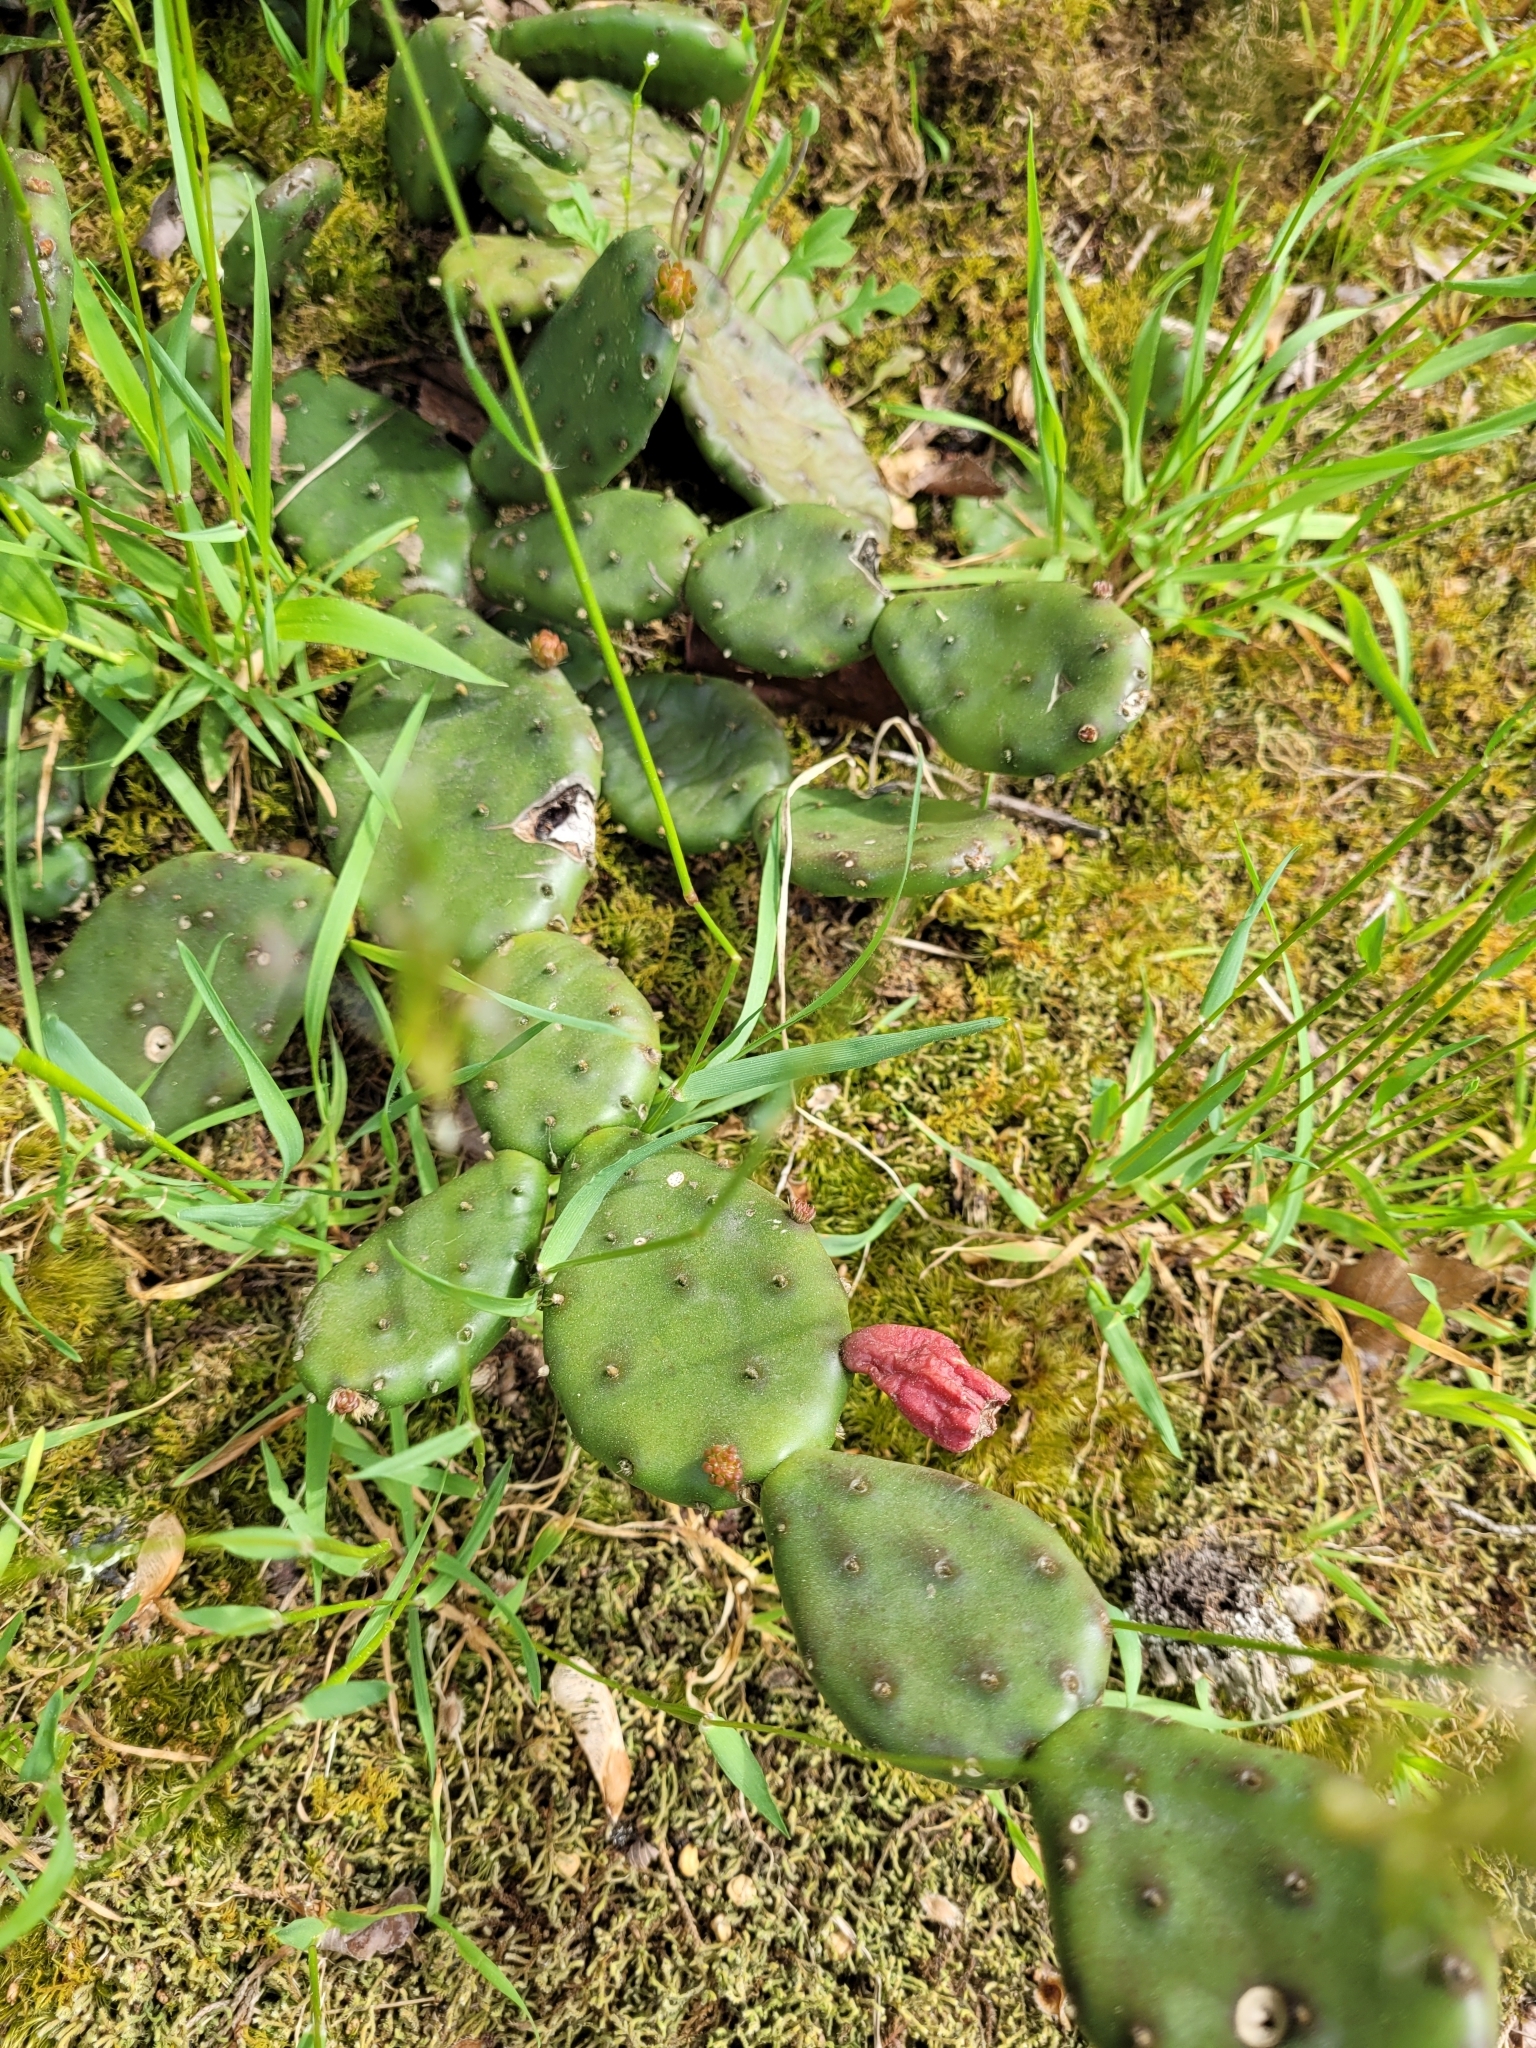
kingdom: Plantae
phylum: Tracheophyta
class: Magnoliopsida
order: Caryophyllales
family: Cactaceae
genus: Opuntia
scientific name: Opuntia humifusa
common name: Eastern prickly-pear
